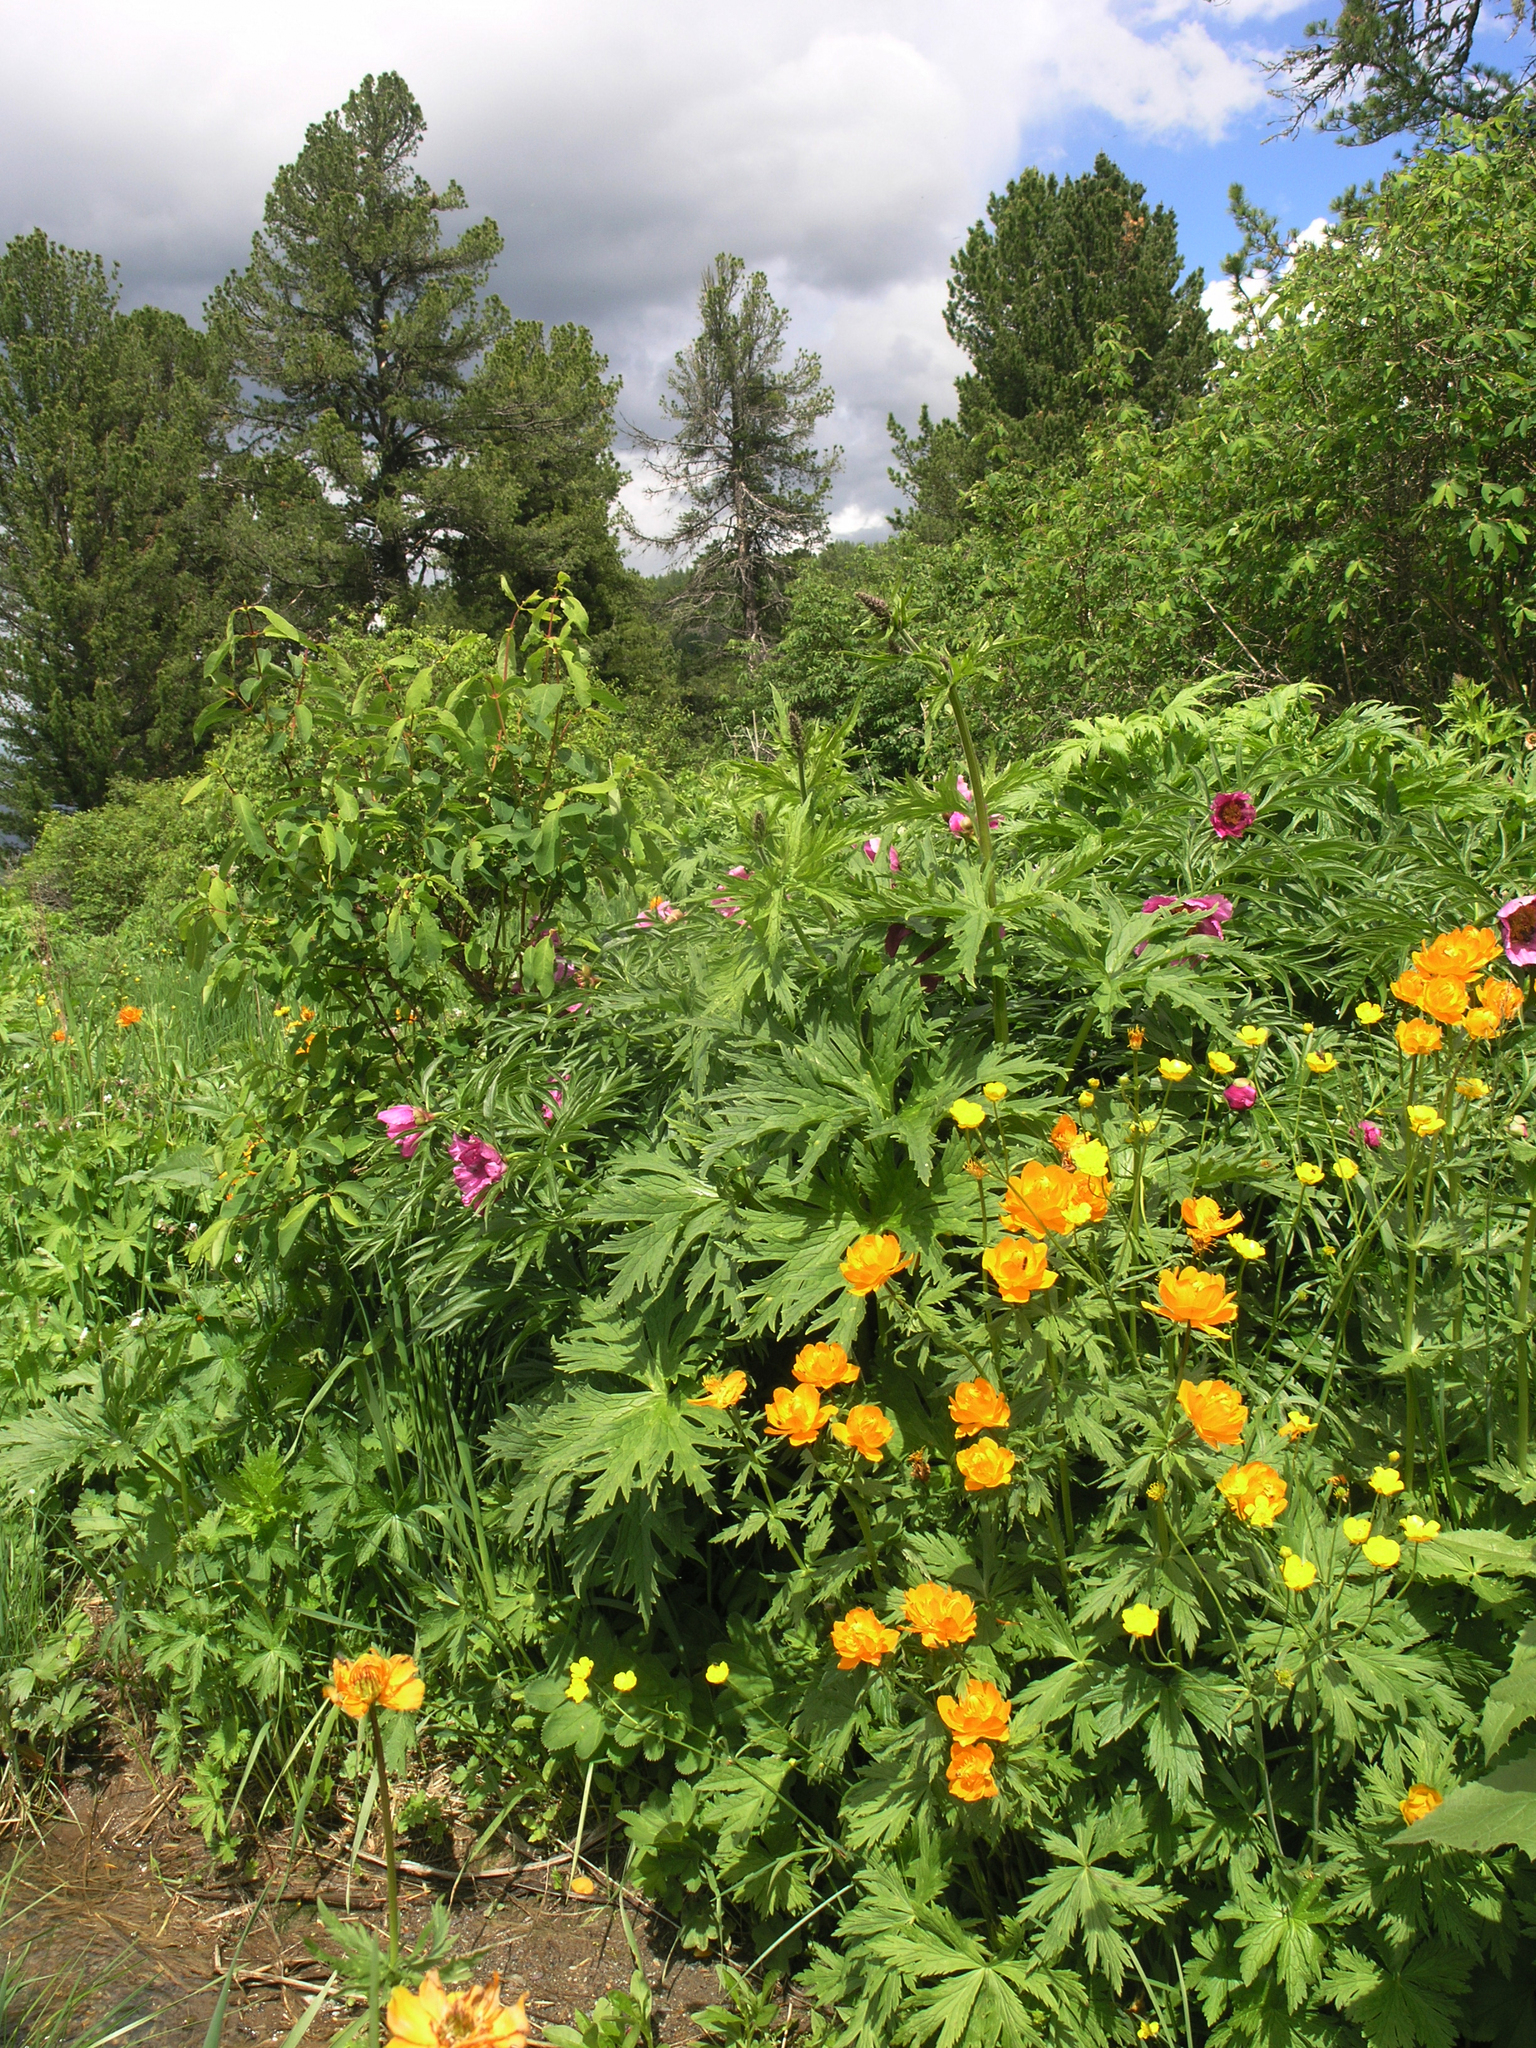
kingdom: Plantae
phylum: Tracheophyta
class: Magnoliopsida
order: Ranunculales
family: Ranunculaceae
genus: Aconitum
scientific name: Aconitum septentrionale
